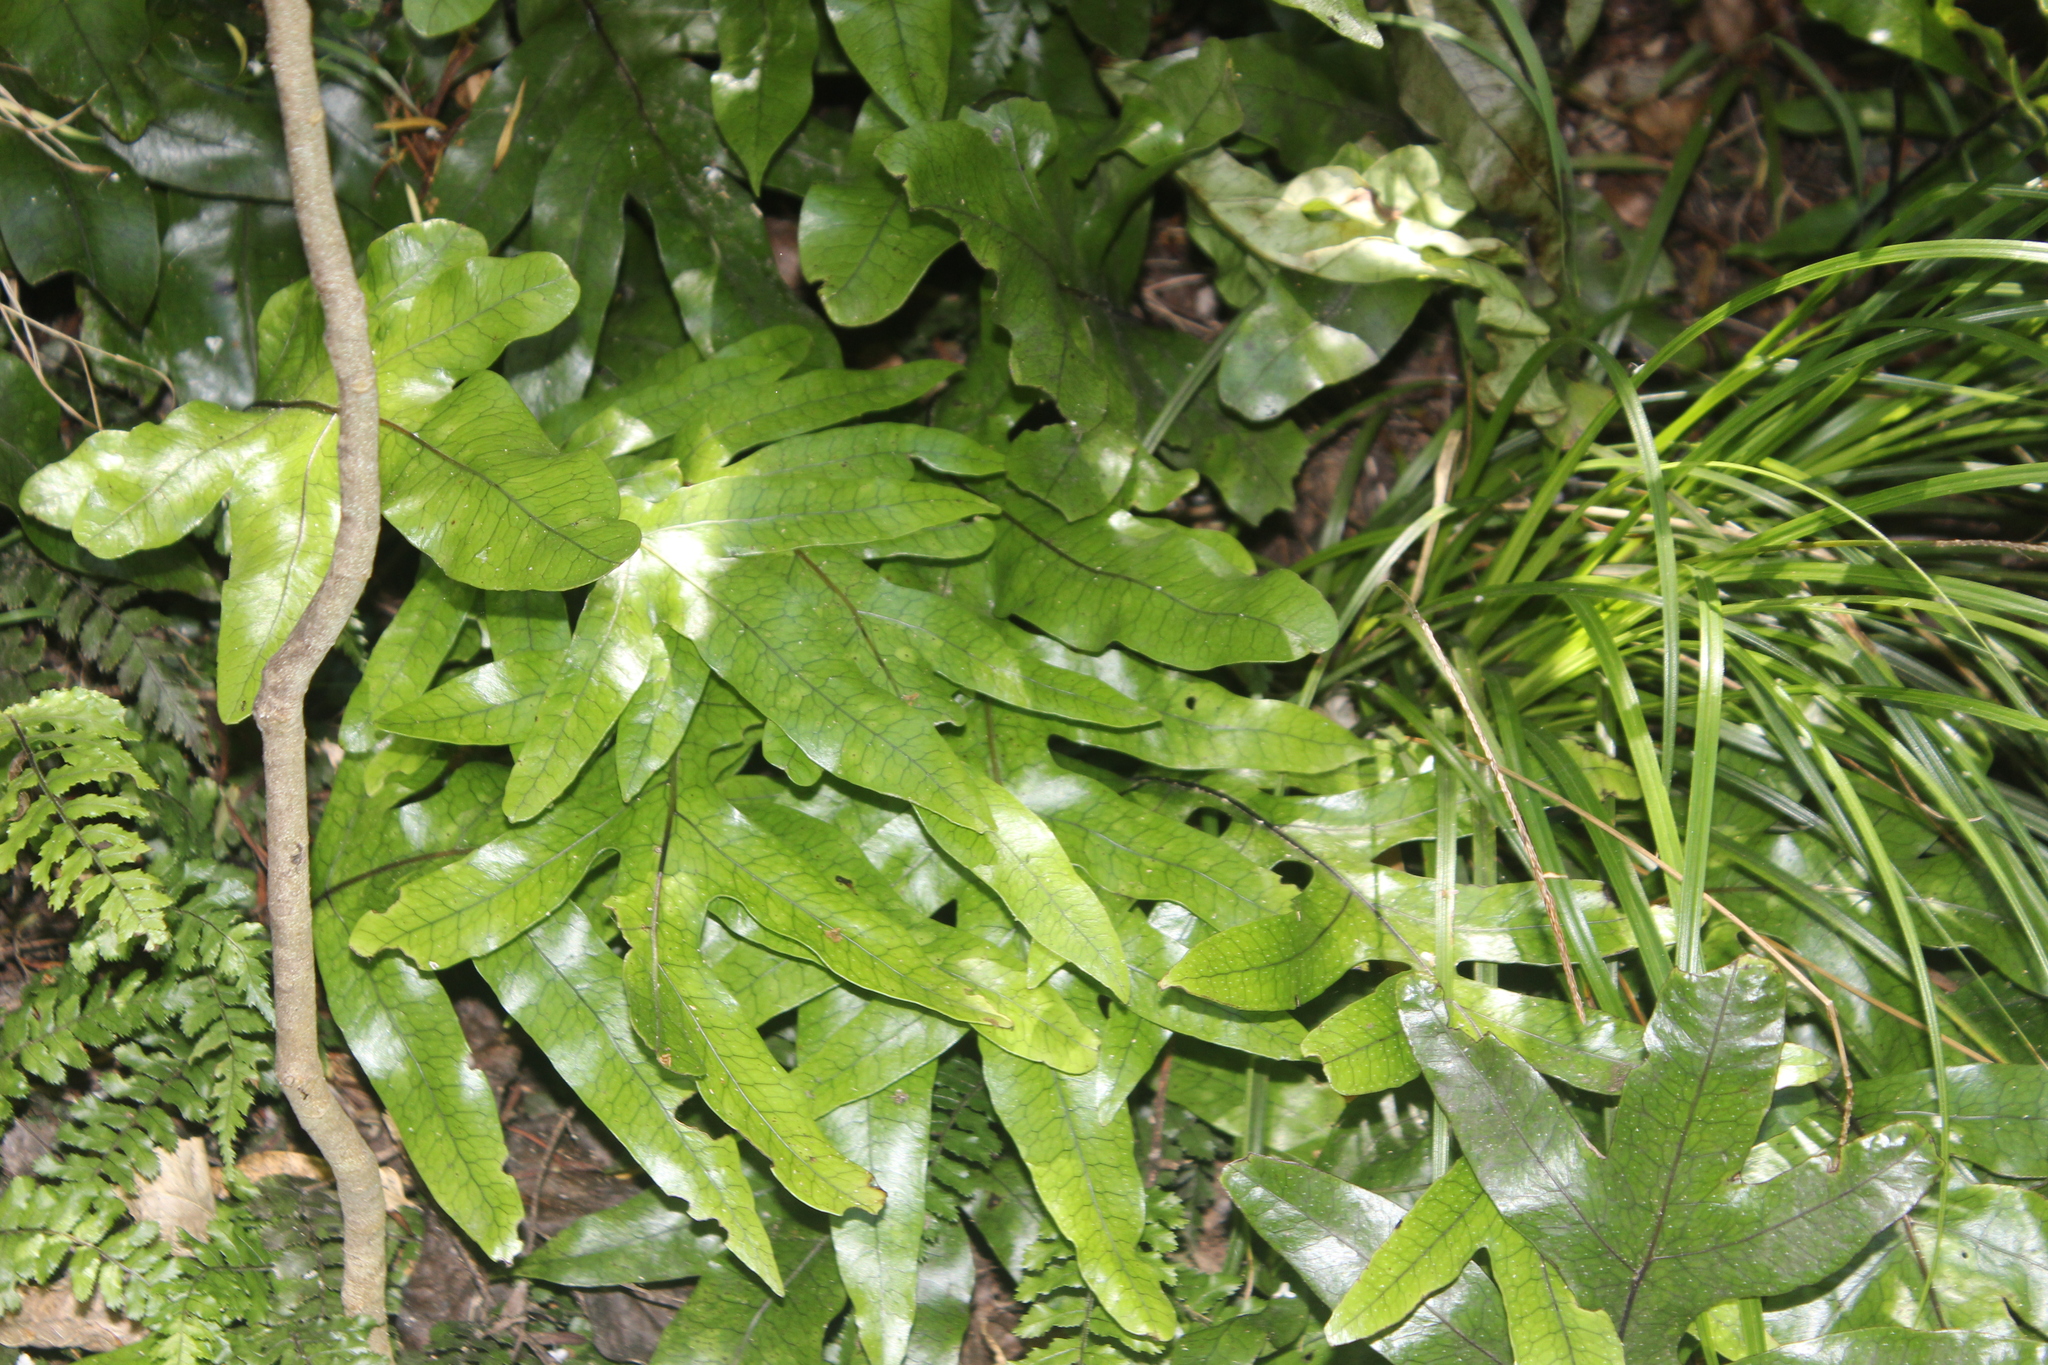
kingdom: Plantae
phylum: Tracheophyta
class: Polypodiopsida
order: Polypodiales
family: Polypodiaceae
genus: Lecanopteris
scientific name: Lecanopteris pustulata
